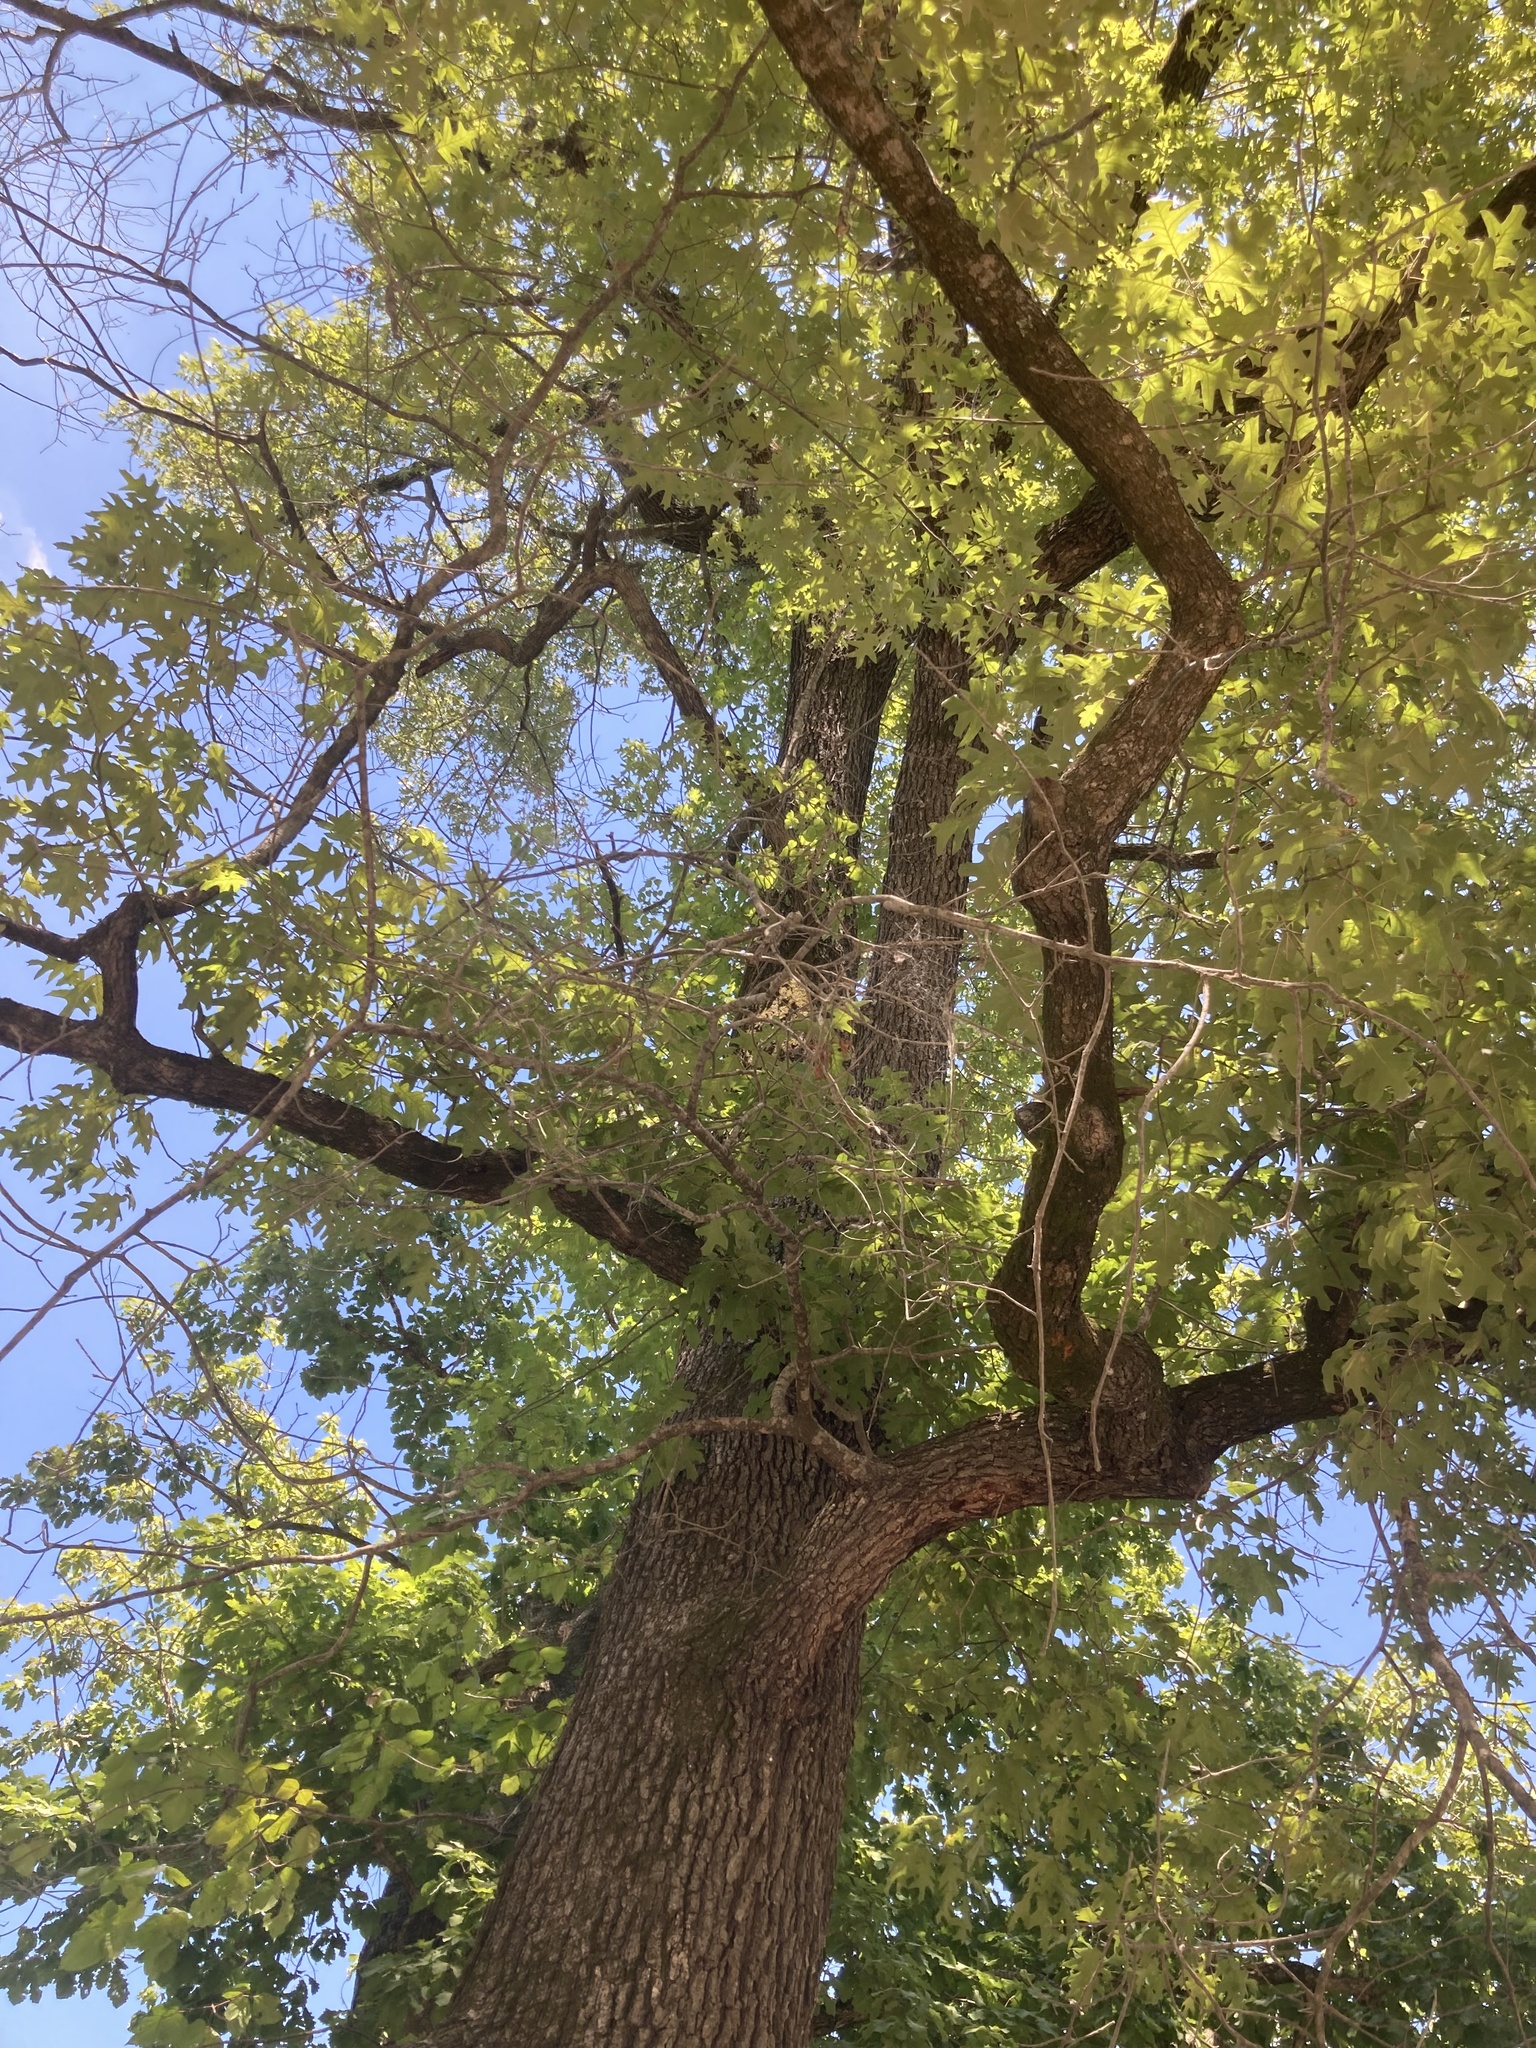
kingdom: Plantae
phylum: Tracheophyta
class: Magnoliopsida
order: Fagales
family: Fagaceae
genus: Quercus
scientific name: Quercus pagoda
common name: Cherrybark oak
